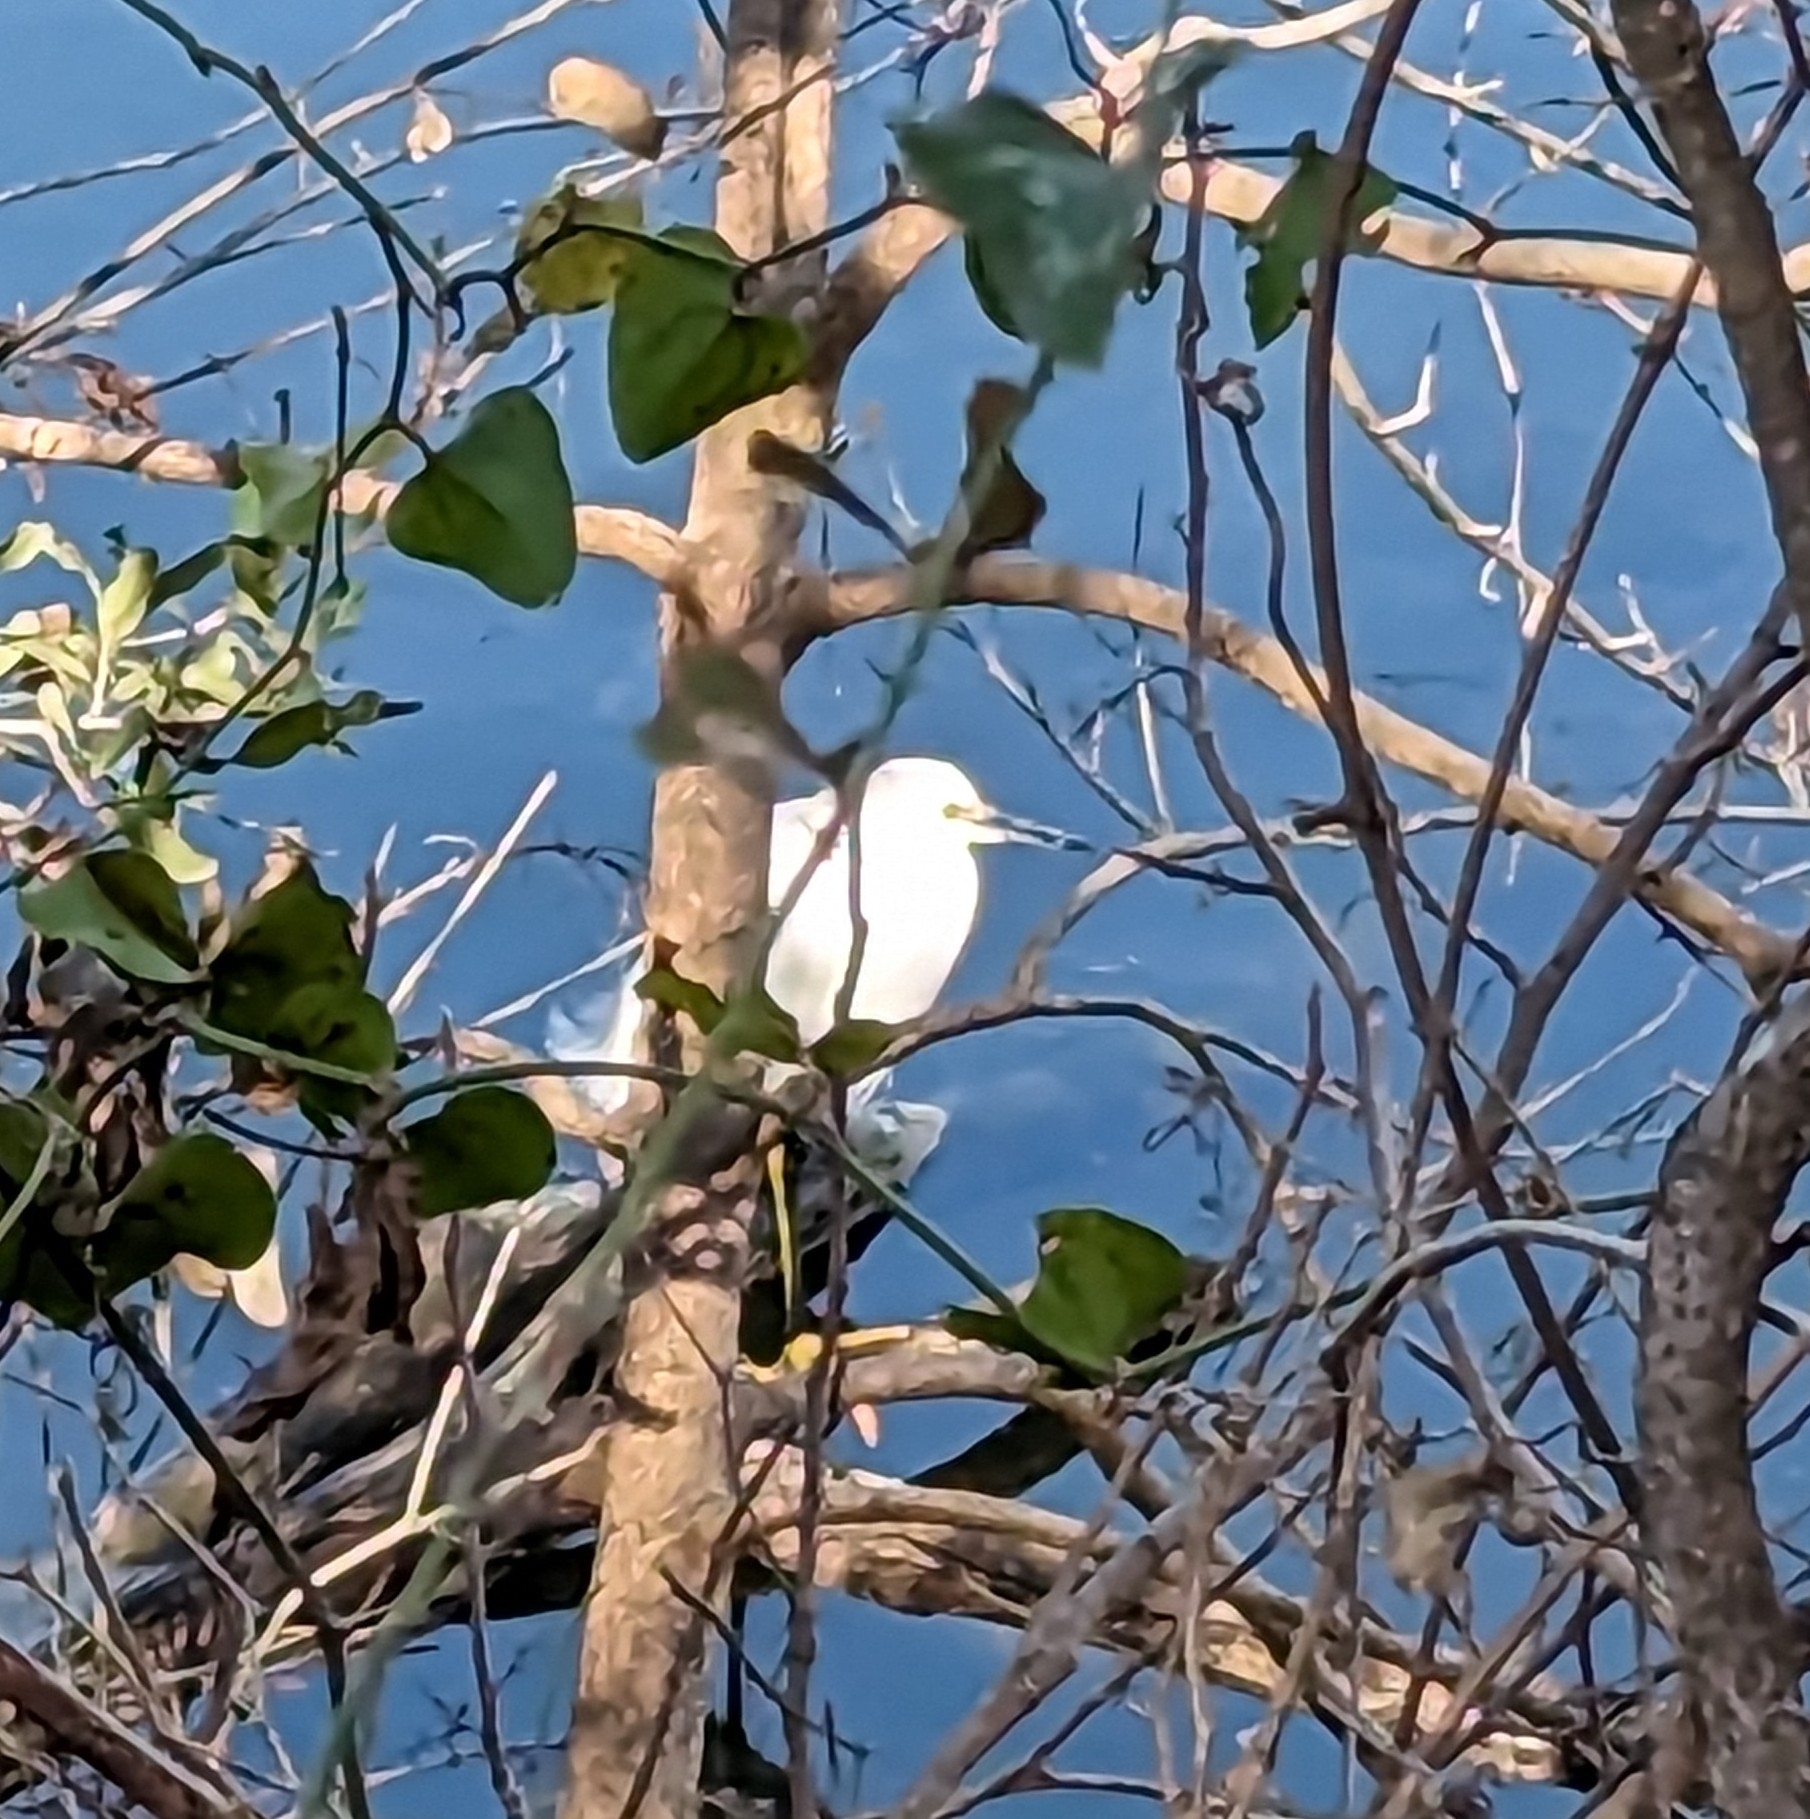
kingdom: Animalia
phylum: Chordata
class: Aves
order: Pelecaniformes
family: Ardeidae
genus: Egretta
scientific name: Egretta thula
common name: Snowy egret
